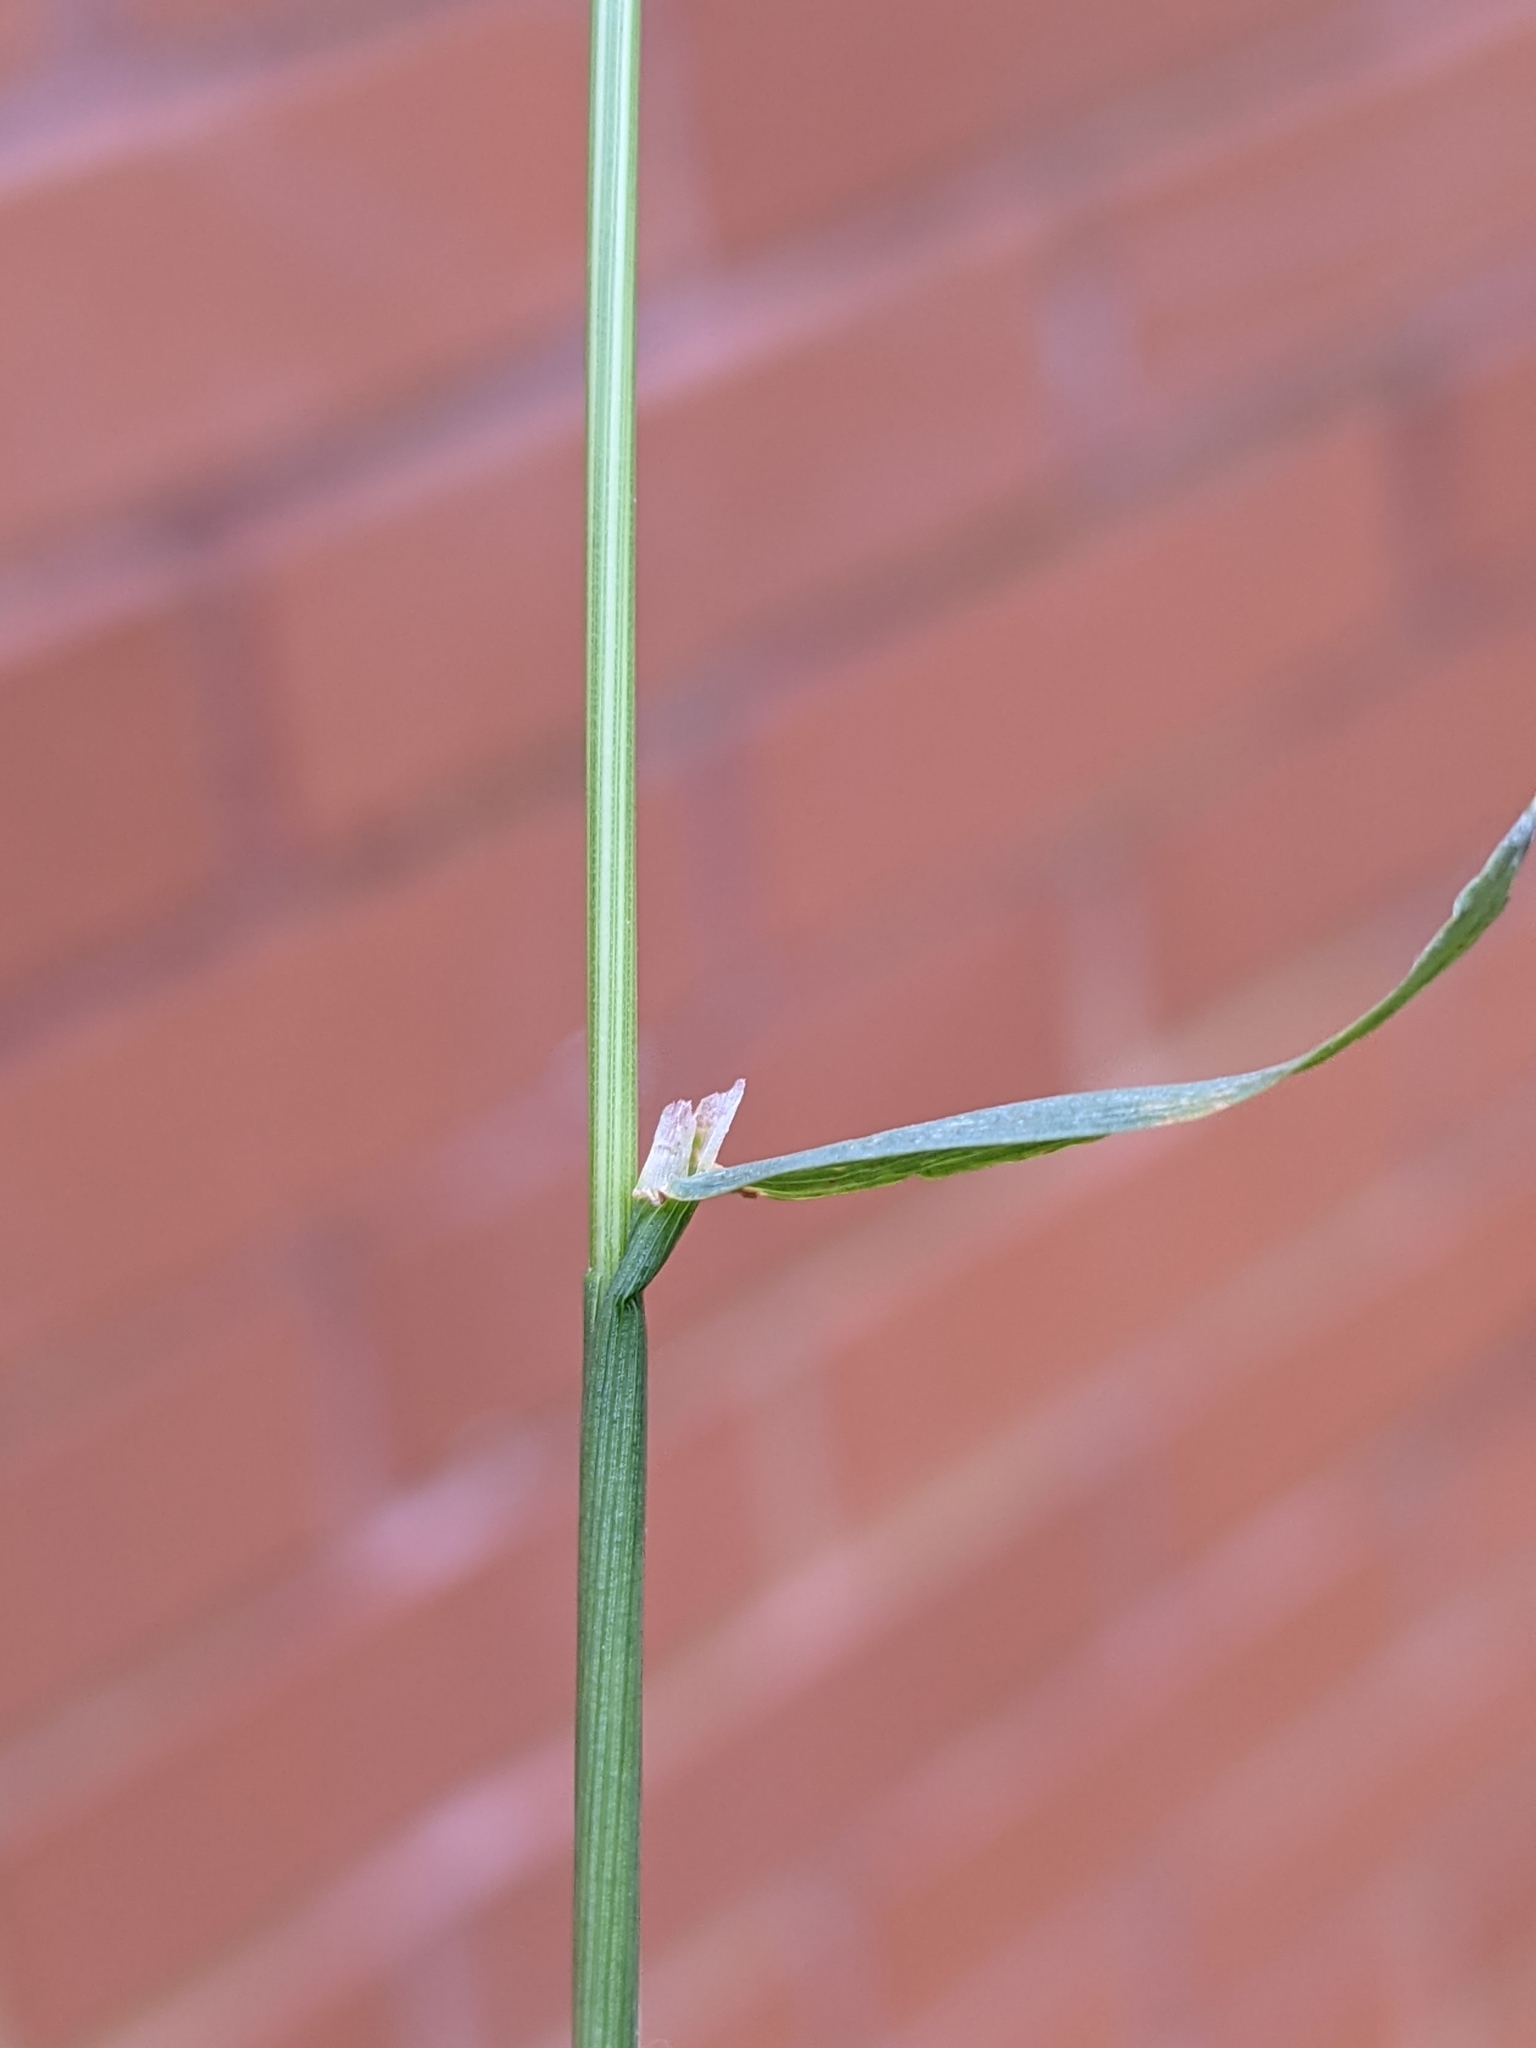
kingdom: Plantae
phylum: Tracheophyta
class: Liliopsida
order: Poales
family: Poaceae
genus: Polypogon
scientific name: Polypogon viridis
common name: Water bent
